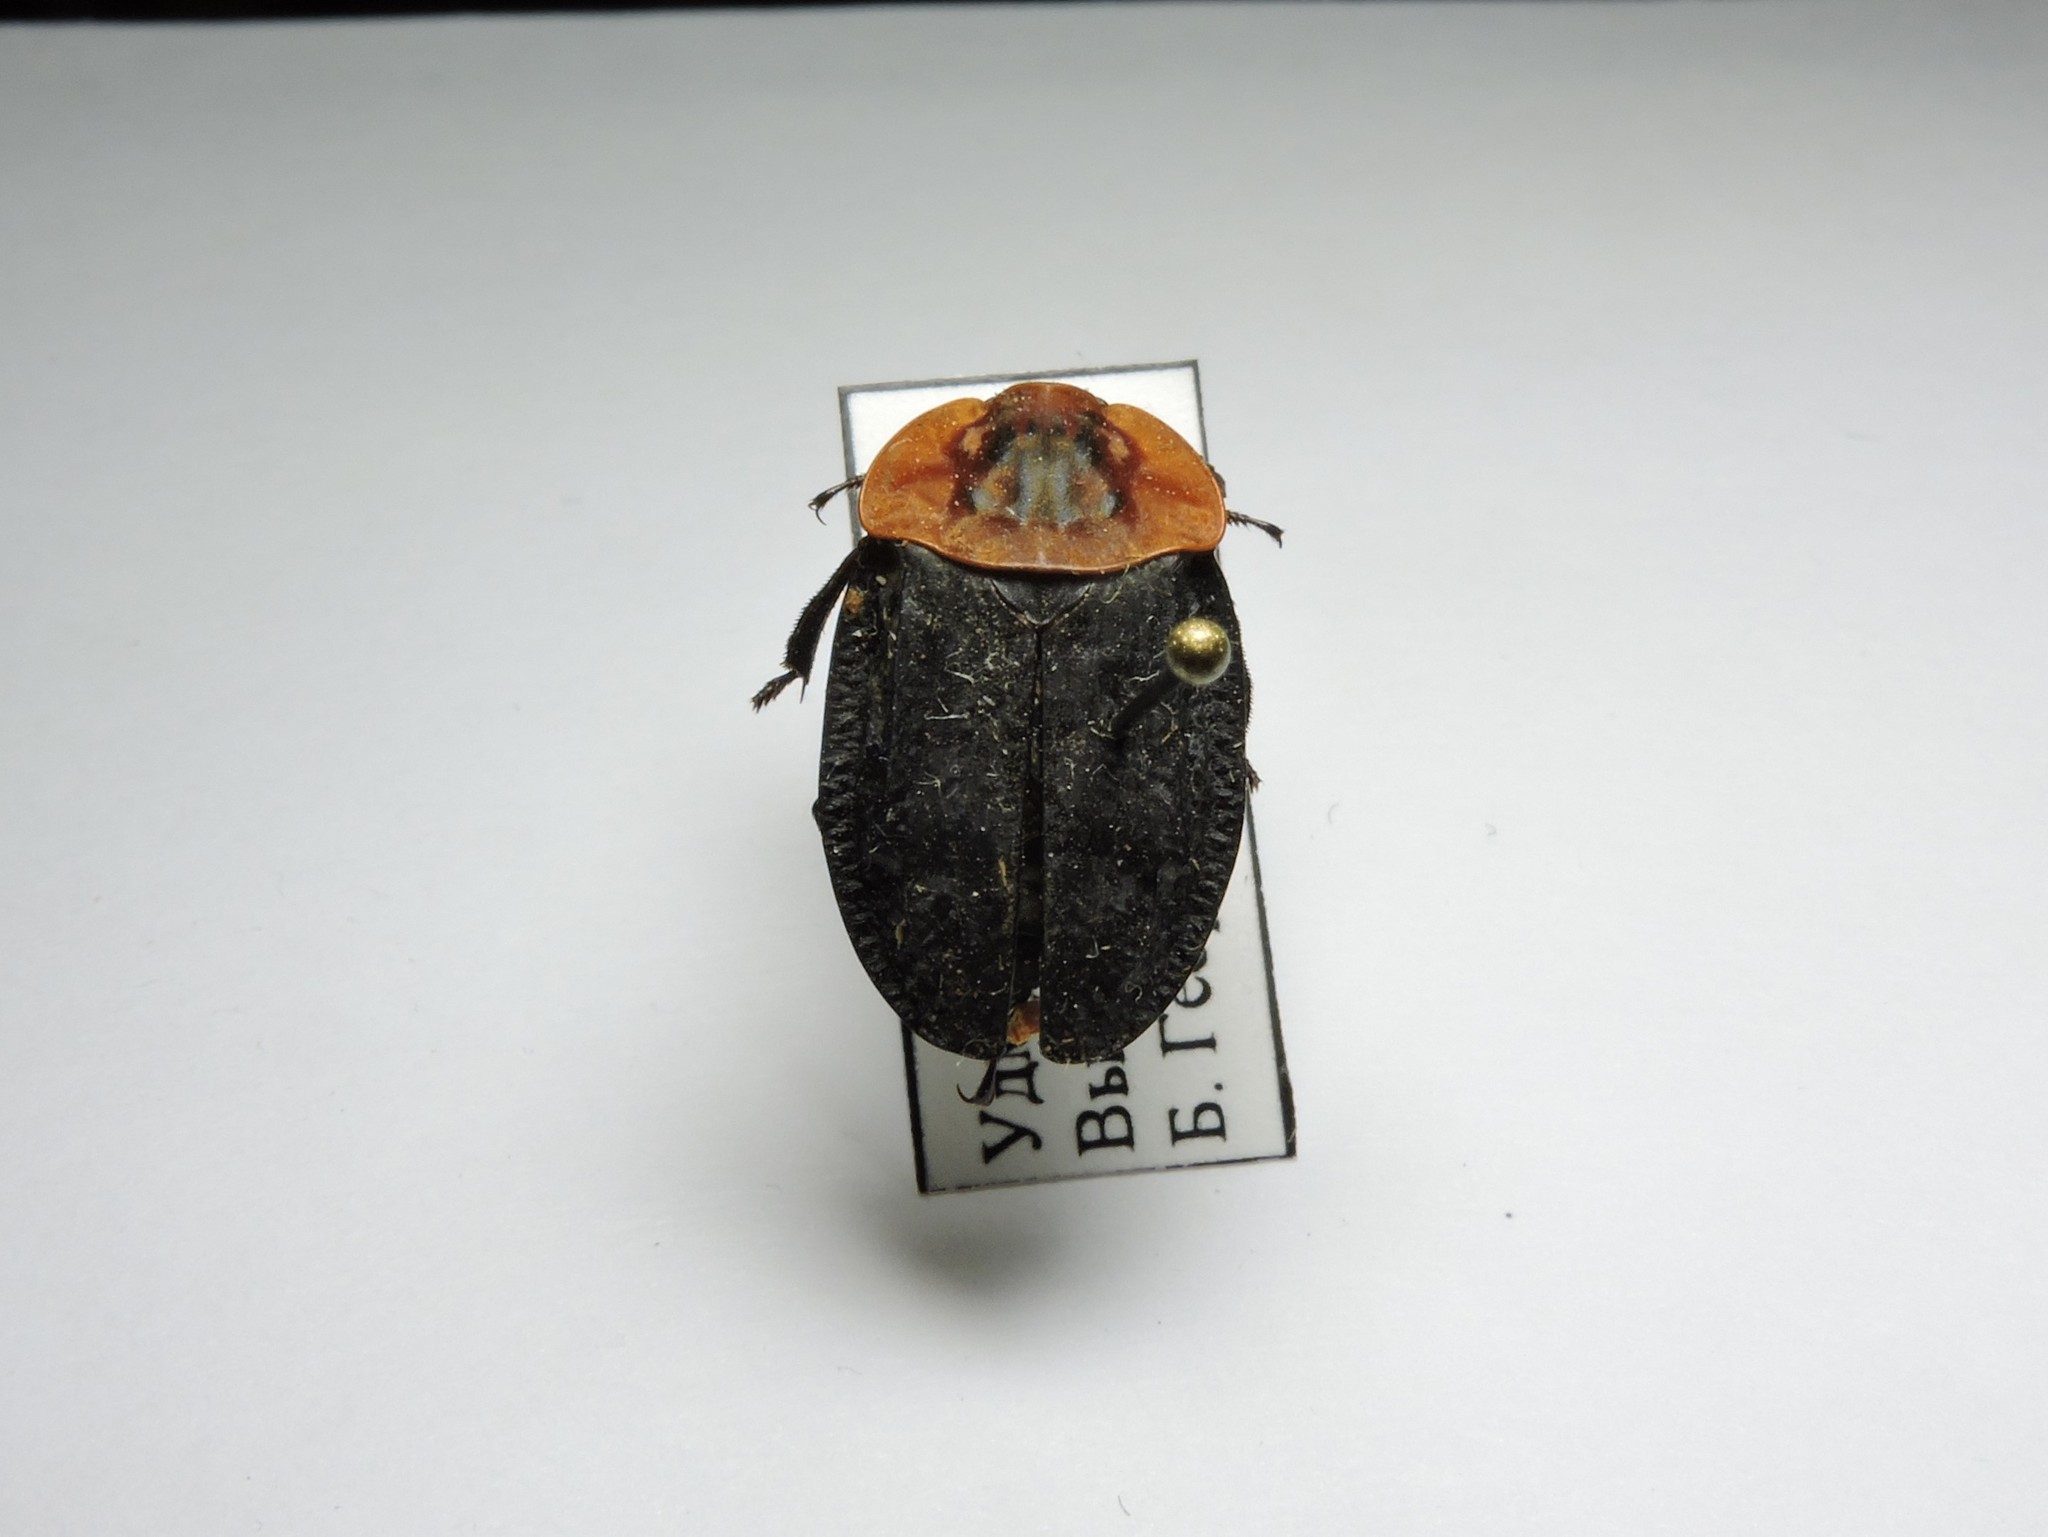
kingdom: Animalia
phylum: Arthropoda
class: Insecta
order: Coleoptera
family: Staphylinidae
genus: Oiceoptoma
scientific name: Oiceoptoma thoracicum
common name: Red-breasted carrion beetle
